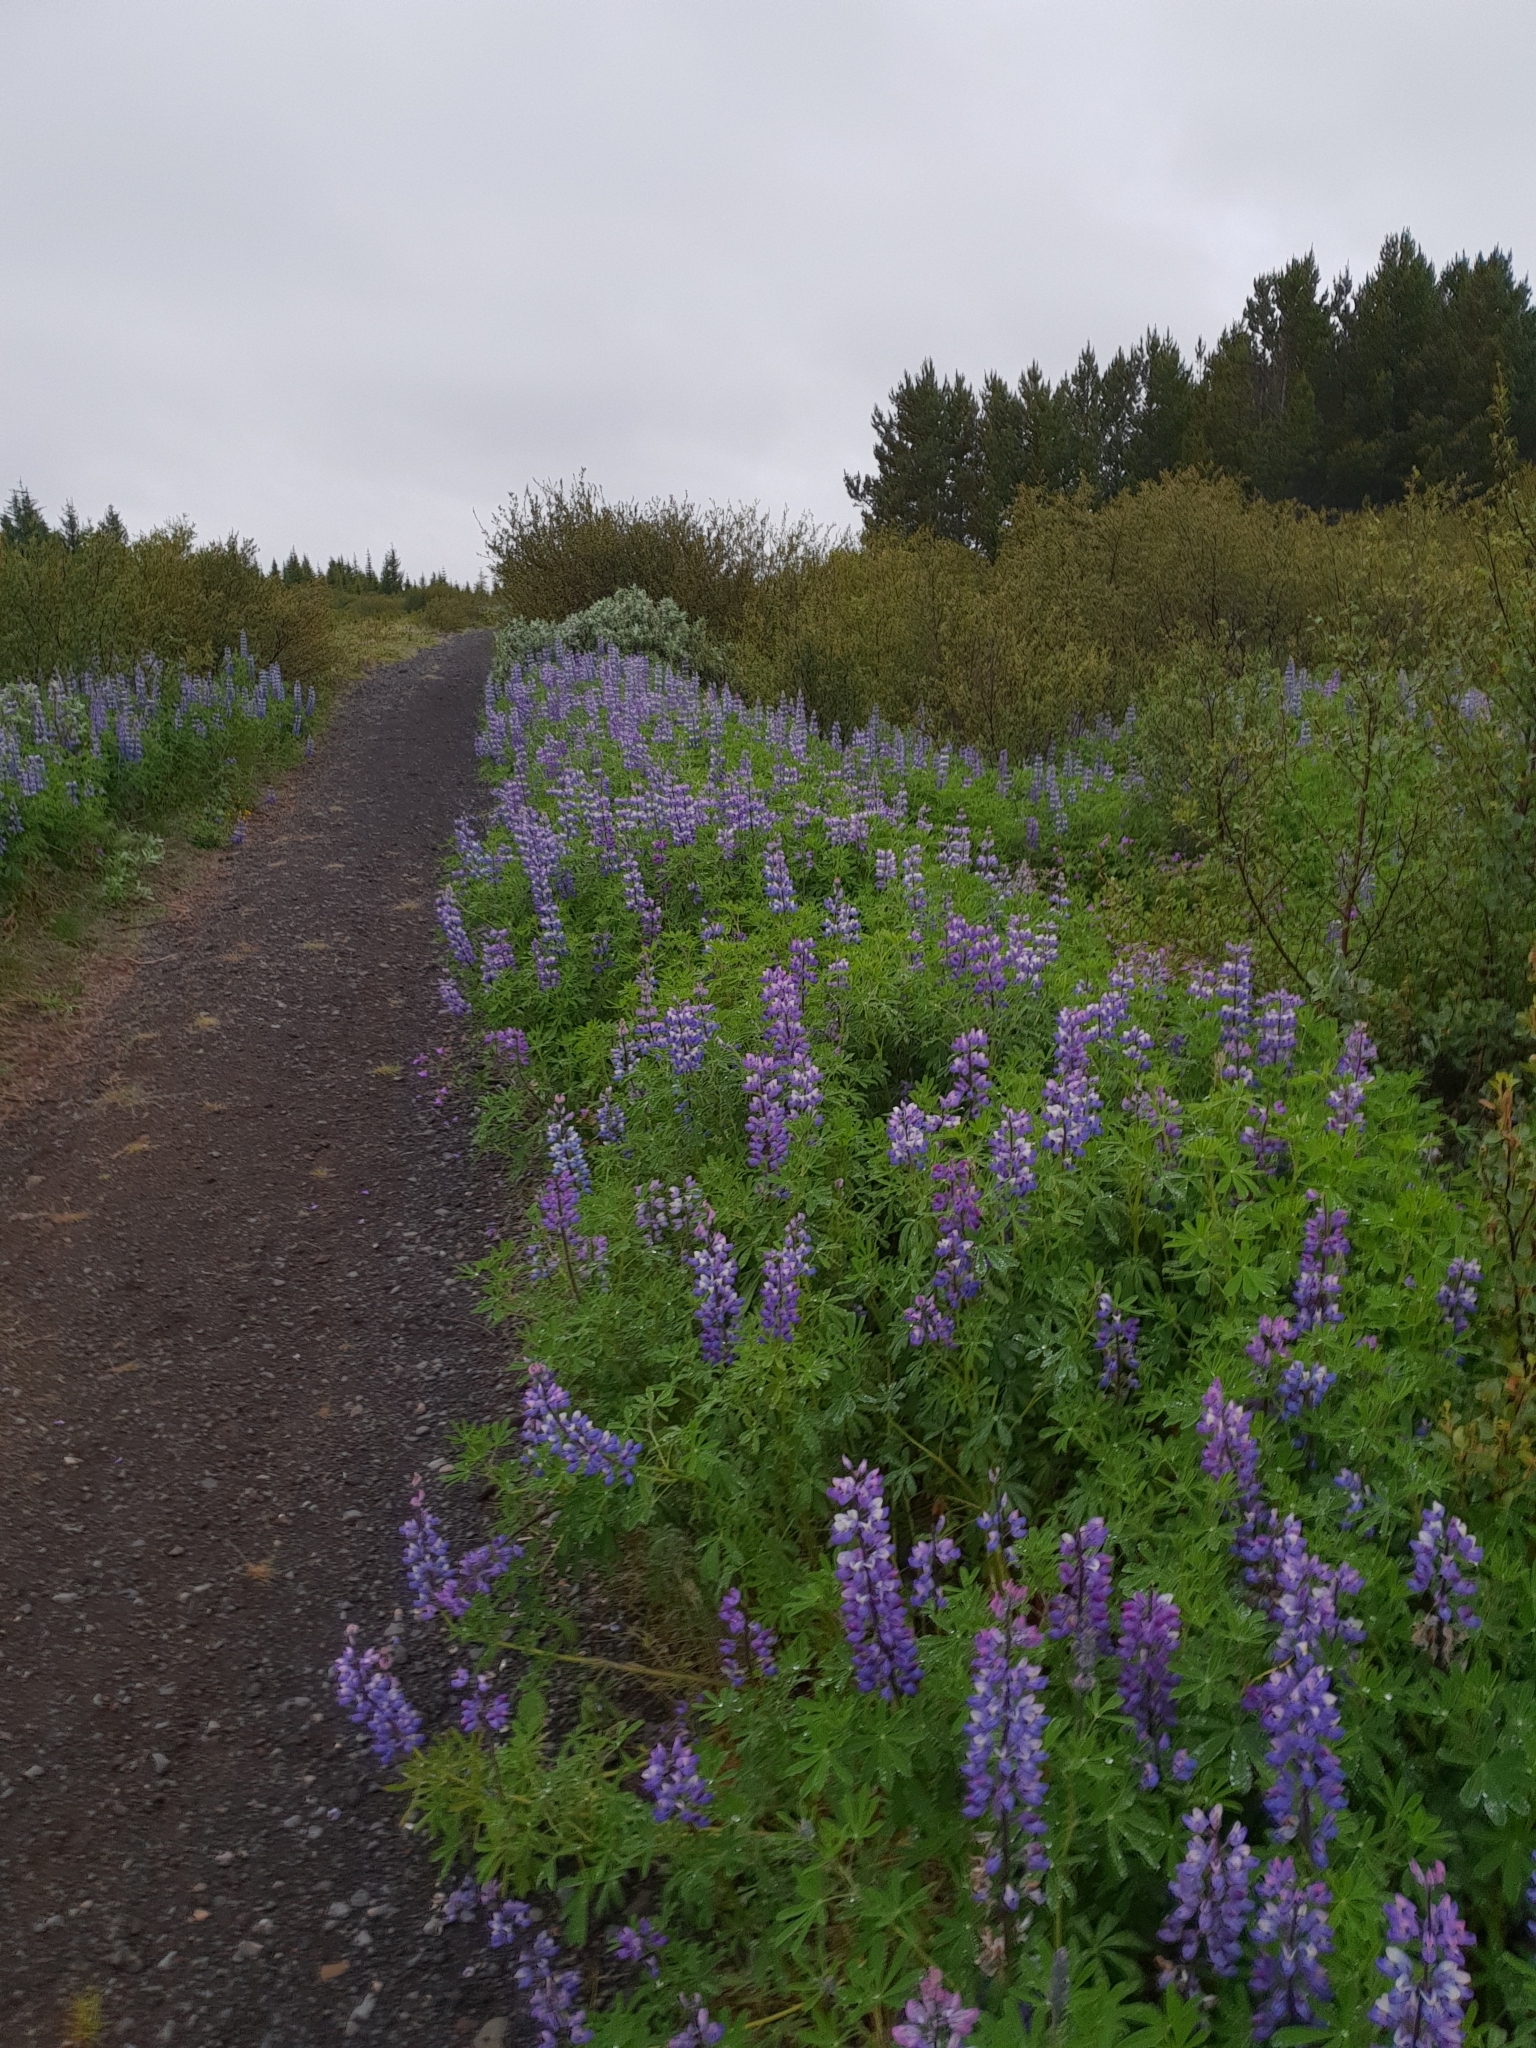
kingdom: Plantae
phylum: Tracheophyta
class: Magnoliopsida
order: Fabales
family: Fabaceae
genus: Lupinus
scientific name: Lupinus nootkatensis
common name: Nootka lupine
